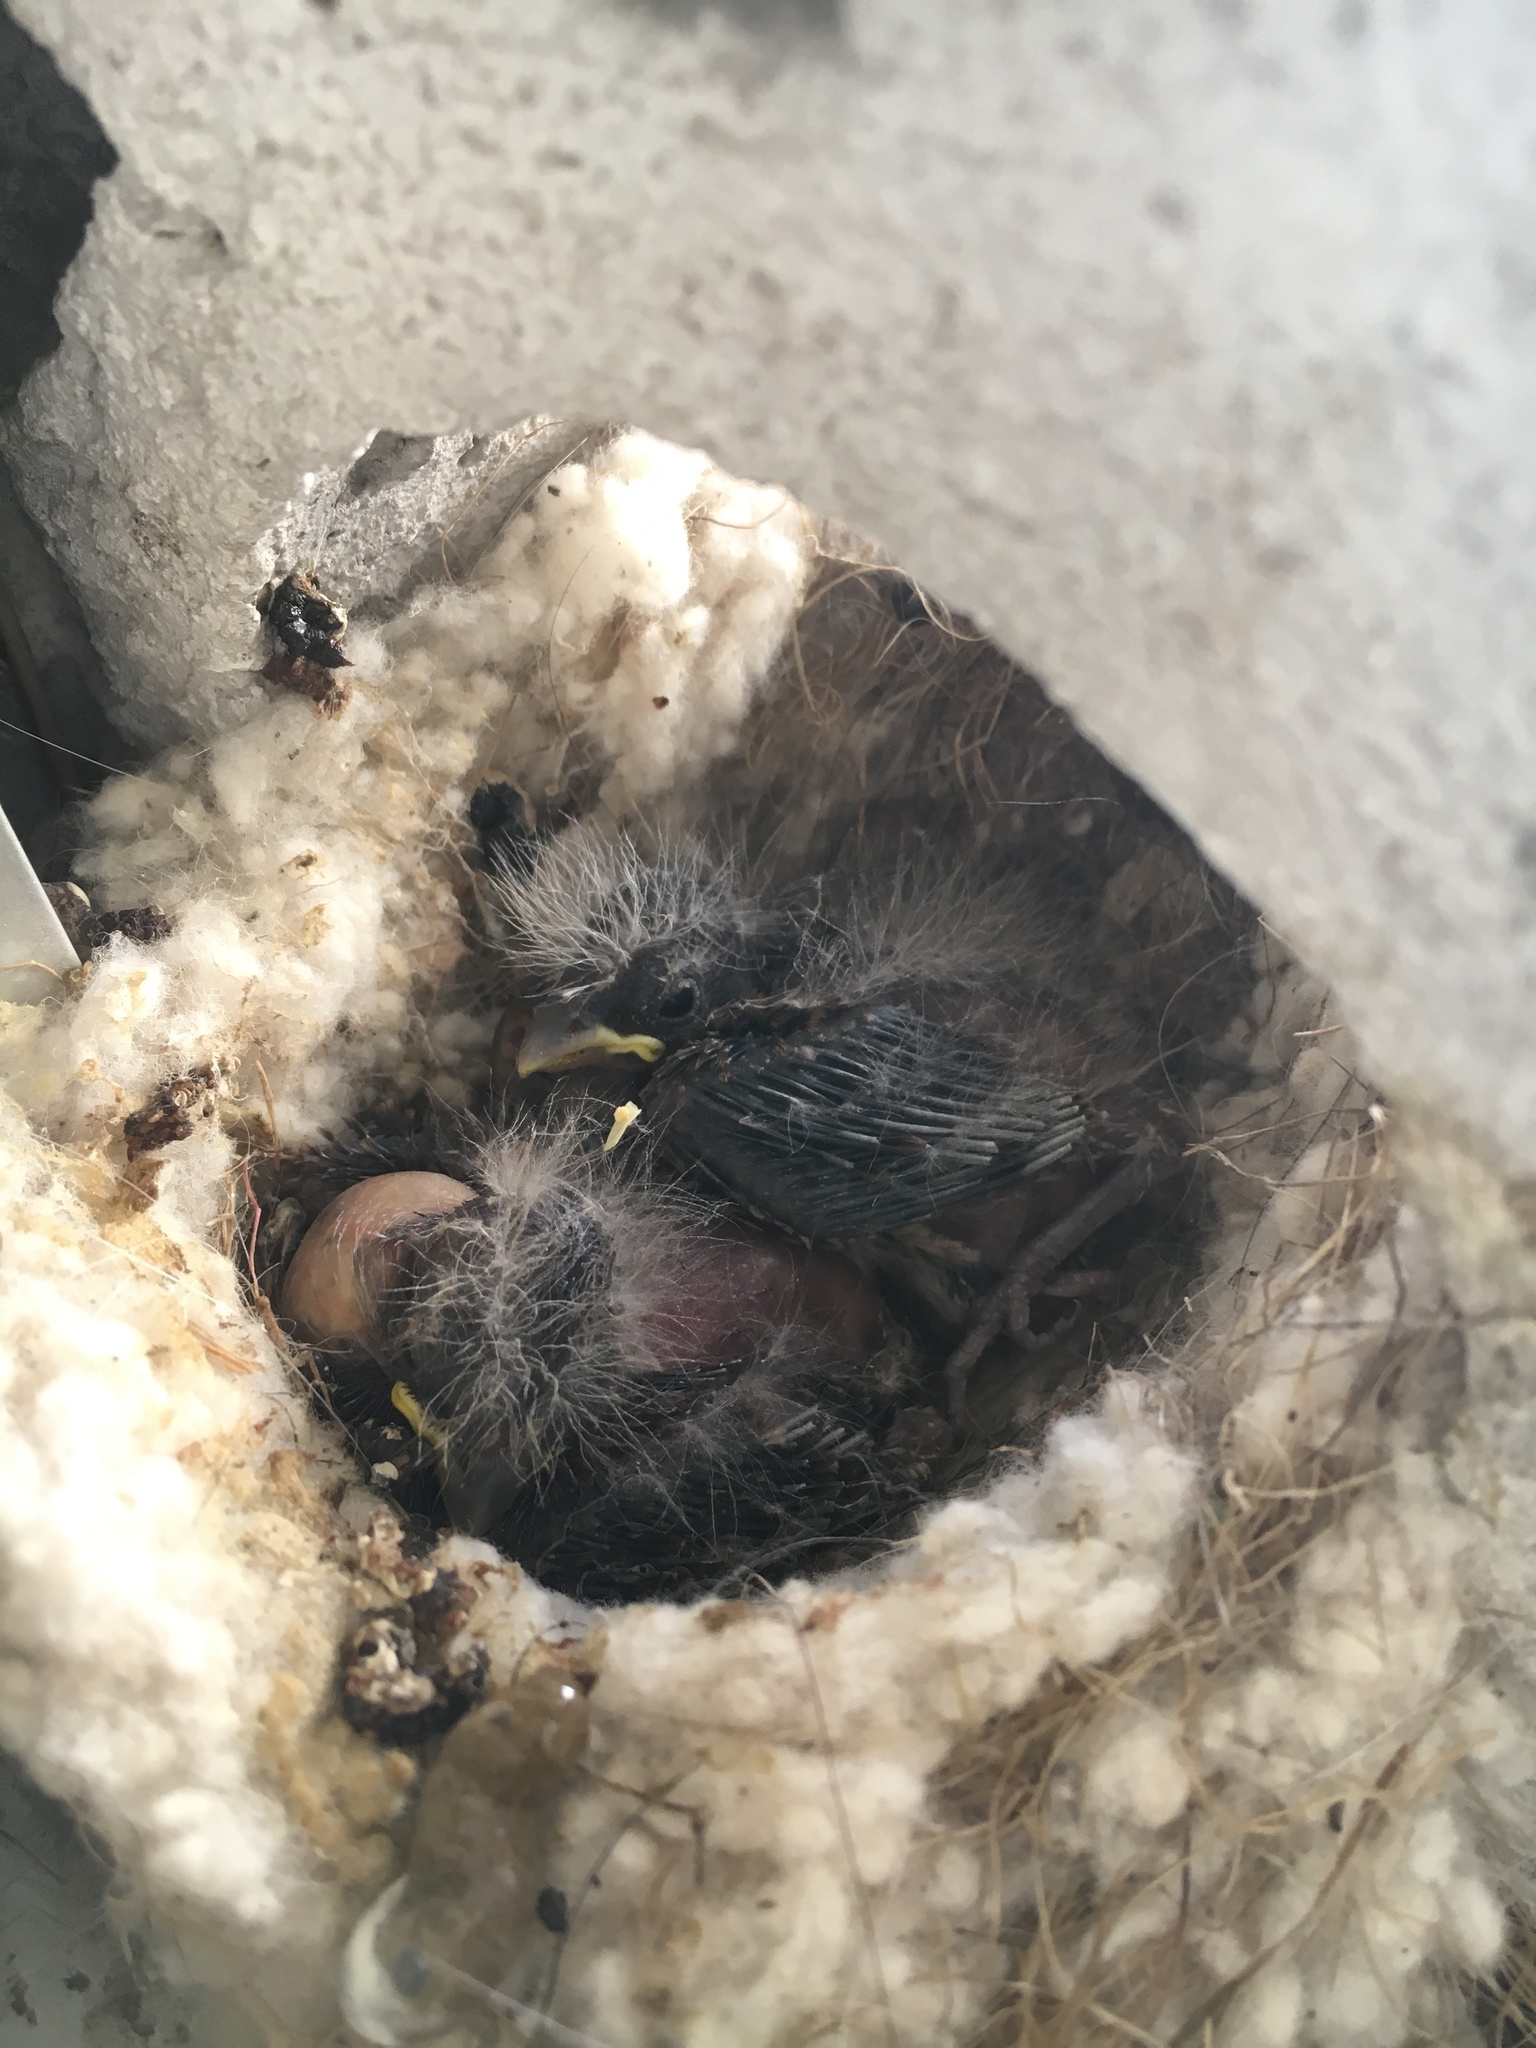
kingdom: Animalia
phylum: Chordata
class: Aves
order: Passeriformes
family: Fringillidae
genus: Haemorhous
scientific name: Haemorhous mexicanus
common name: House finch
